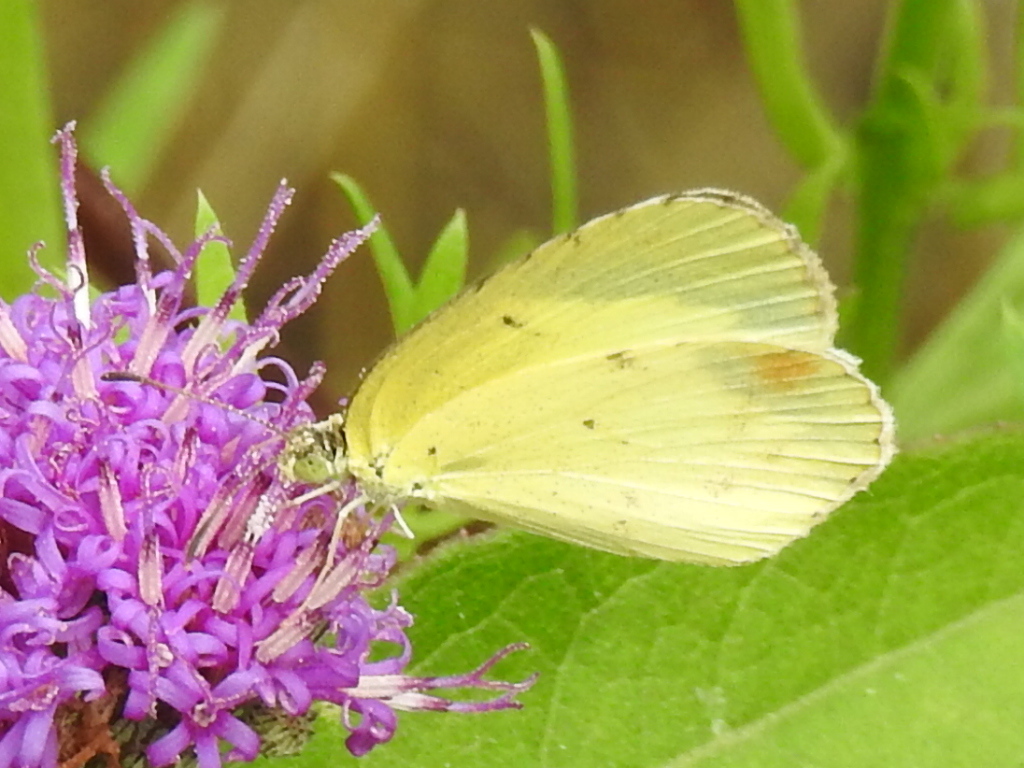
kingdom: Animalia
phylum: Arthropoda
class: Insecta
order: Lepidoptera
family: Pieridae
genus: Pyrisitia
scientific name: Pyrisitia lisa
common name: Little yellow
